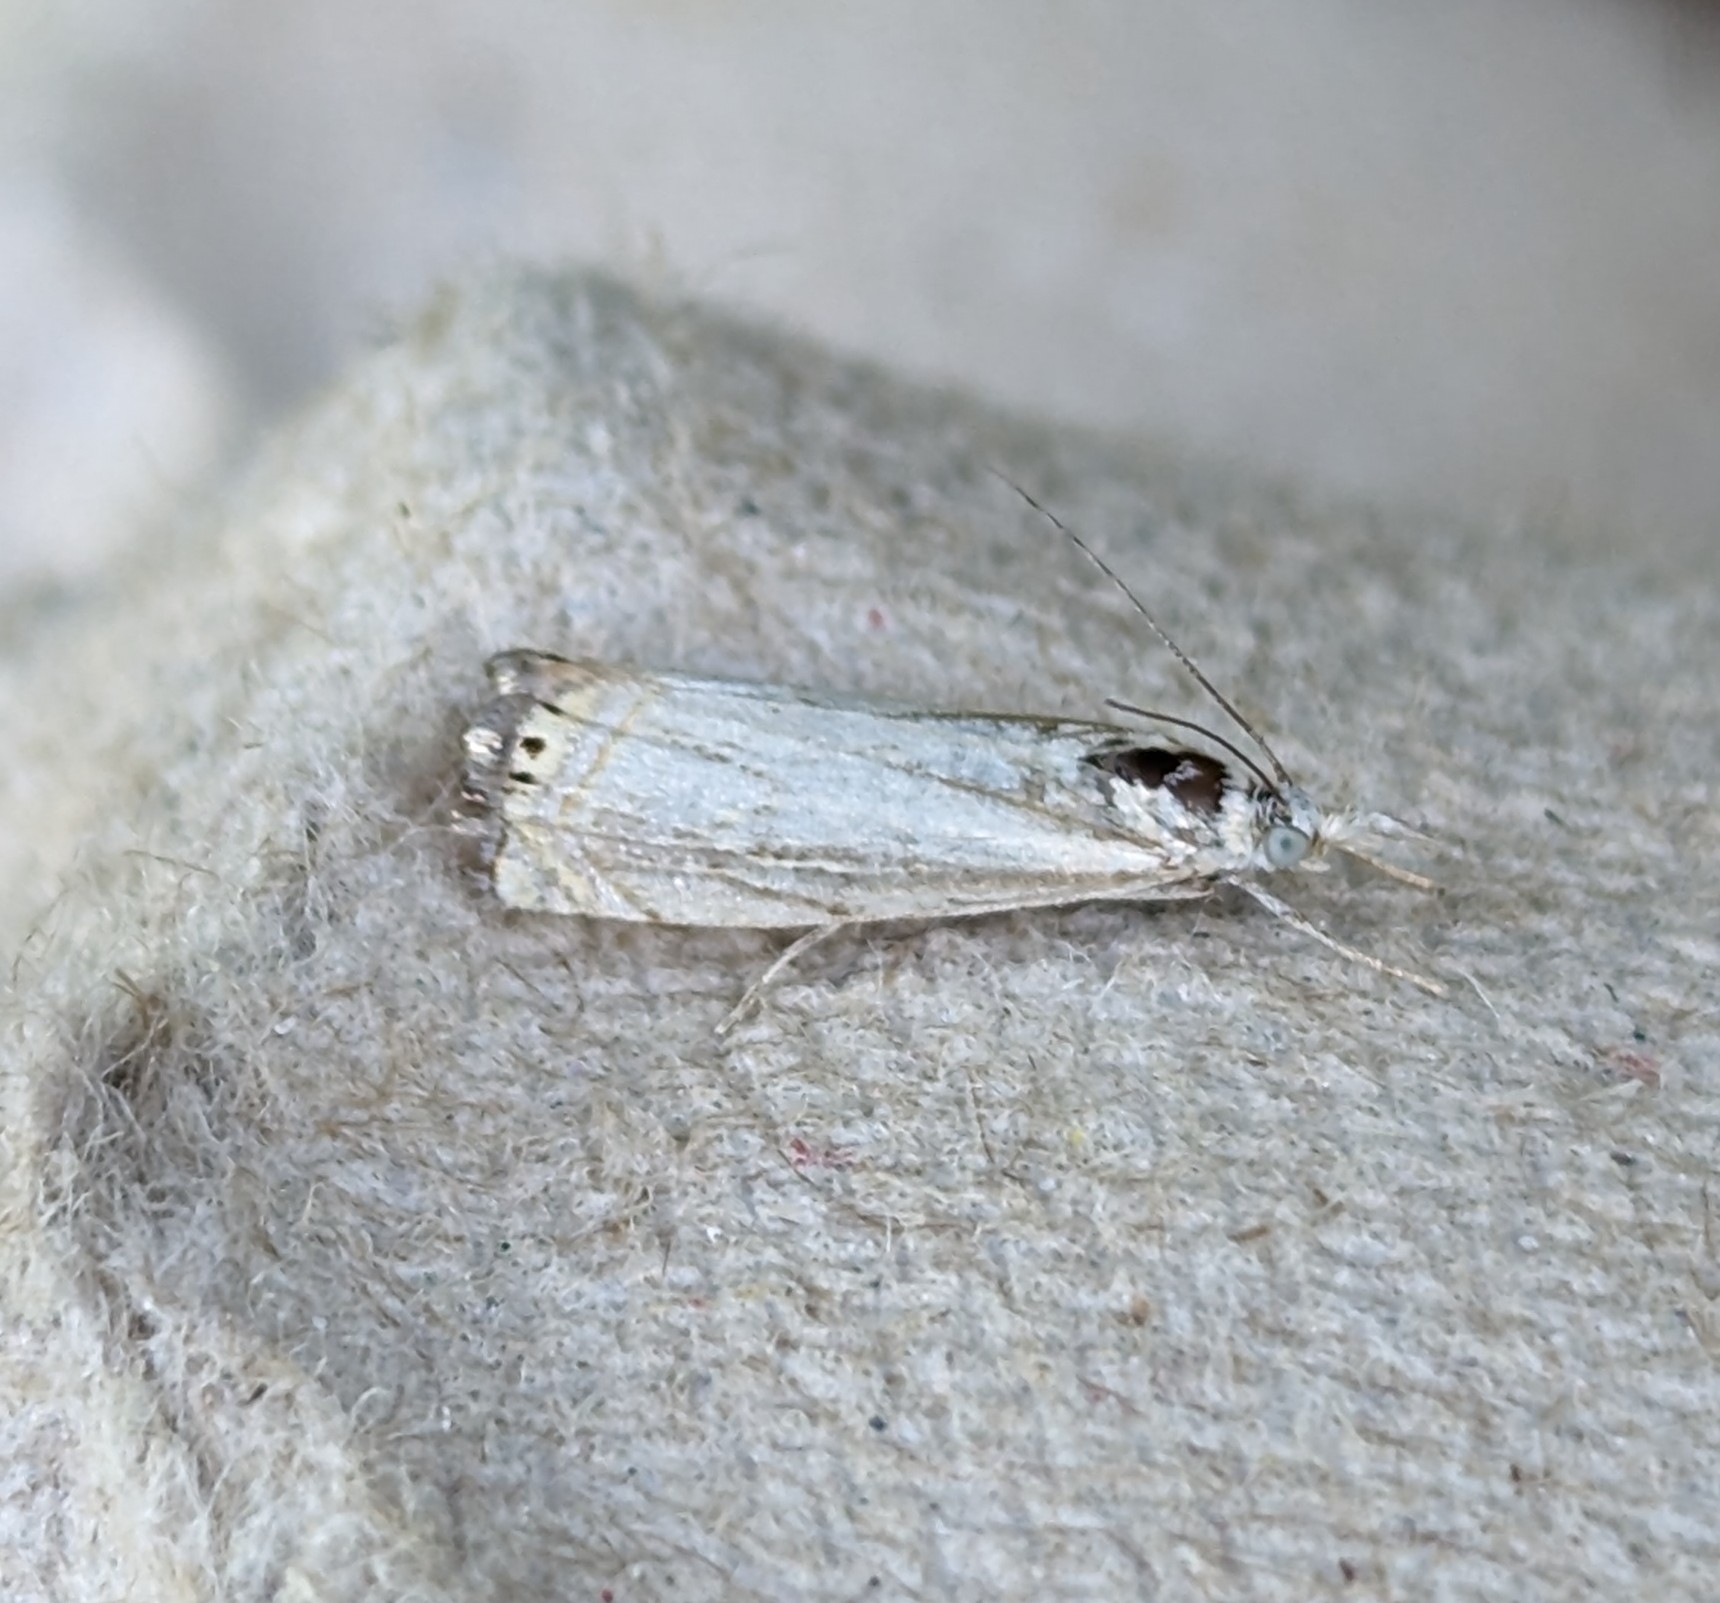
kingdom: Animalia
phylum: Arthropoda
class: Insecta
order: Lepidoptera
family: Crambidae
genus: Chrysoteuchia
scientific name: Chrysoteuchia topiarius
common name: Topiary grass-veneer
